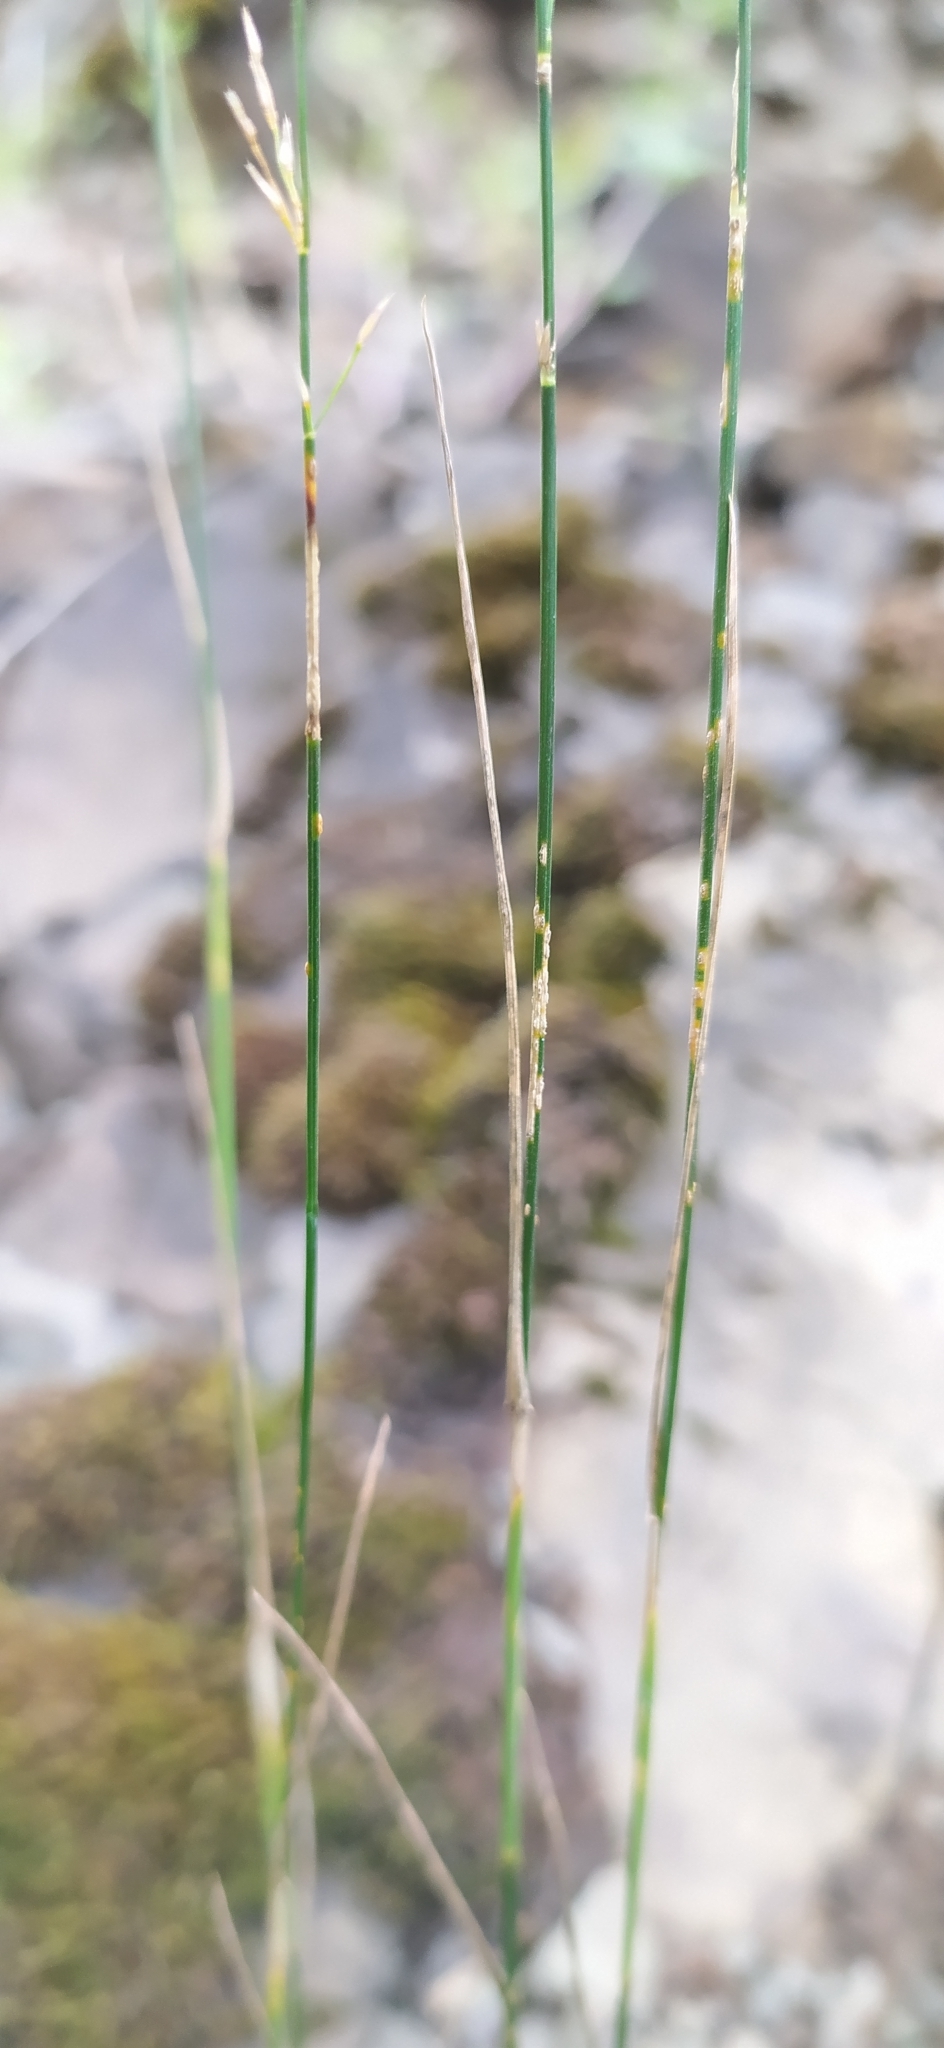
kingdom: Plantae
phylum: Tracheophyta
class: Liliopsida
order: Poales
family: Poaceae
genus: Poa
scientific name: Poa nemoralis
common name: Wood bluegrass
